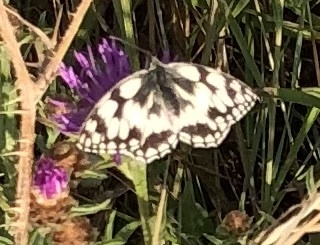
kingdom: Animalia
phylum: Arthropoda
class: Insecta
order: Lepidoptera
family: Nymphalidae
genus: Melanargia
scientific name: Melanargia galathea
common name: Marbled white
